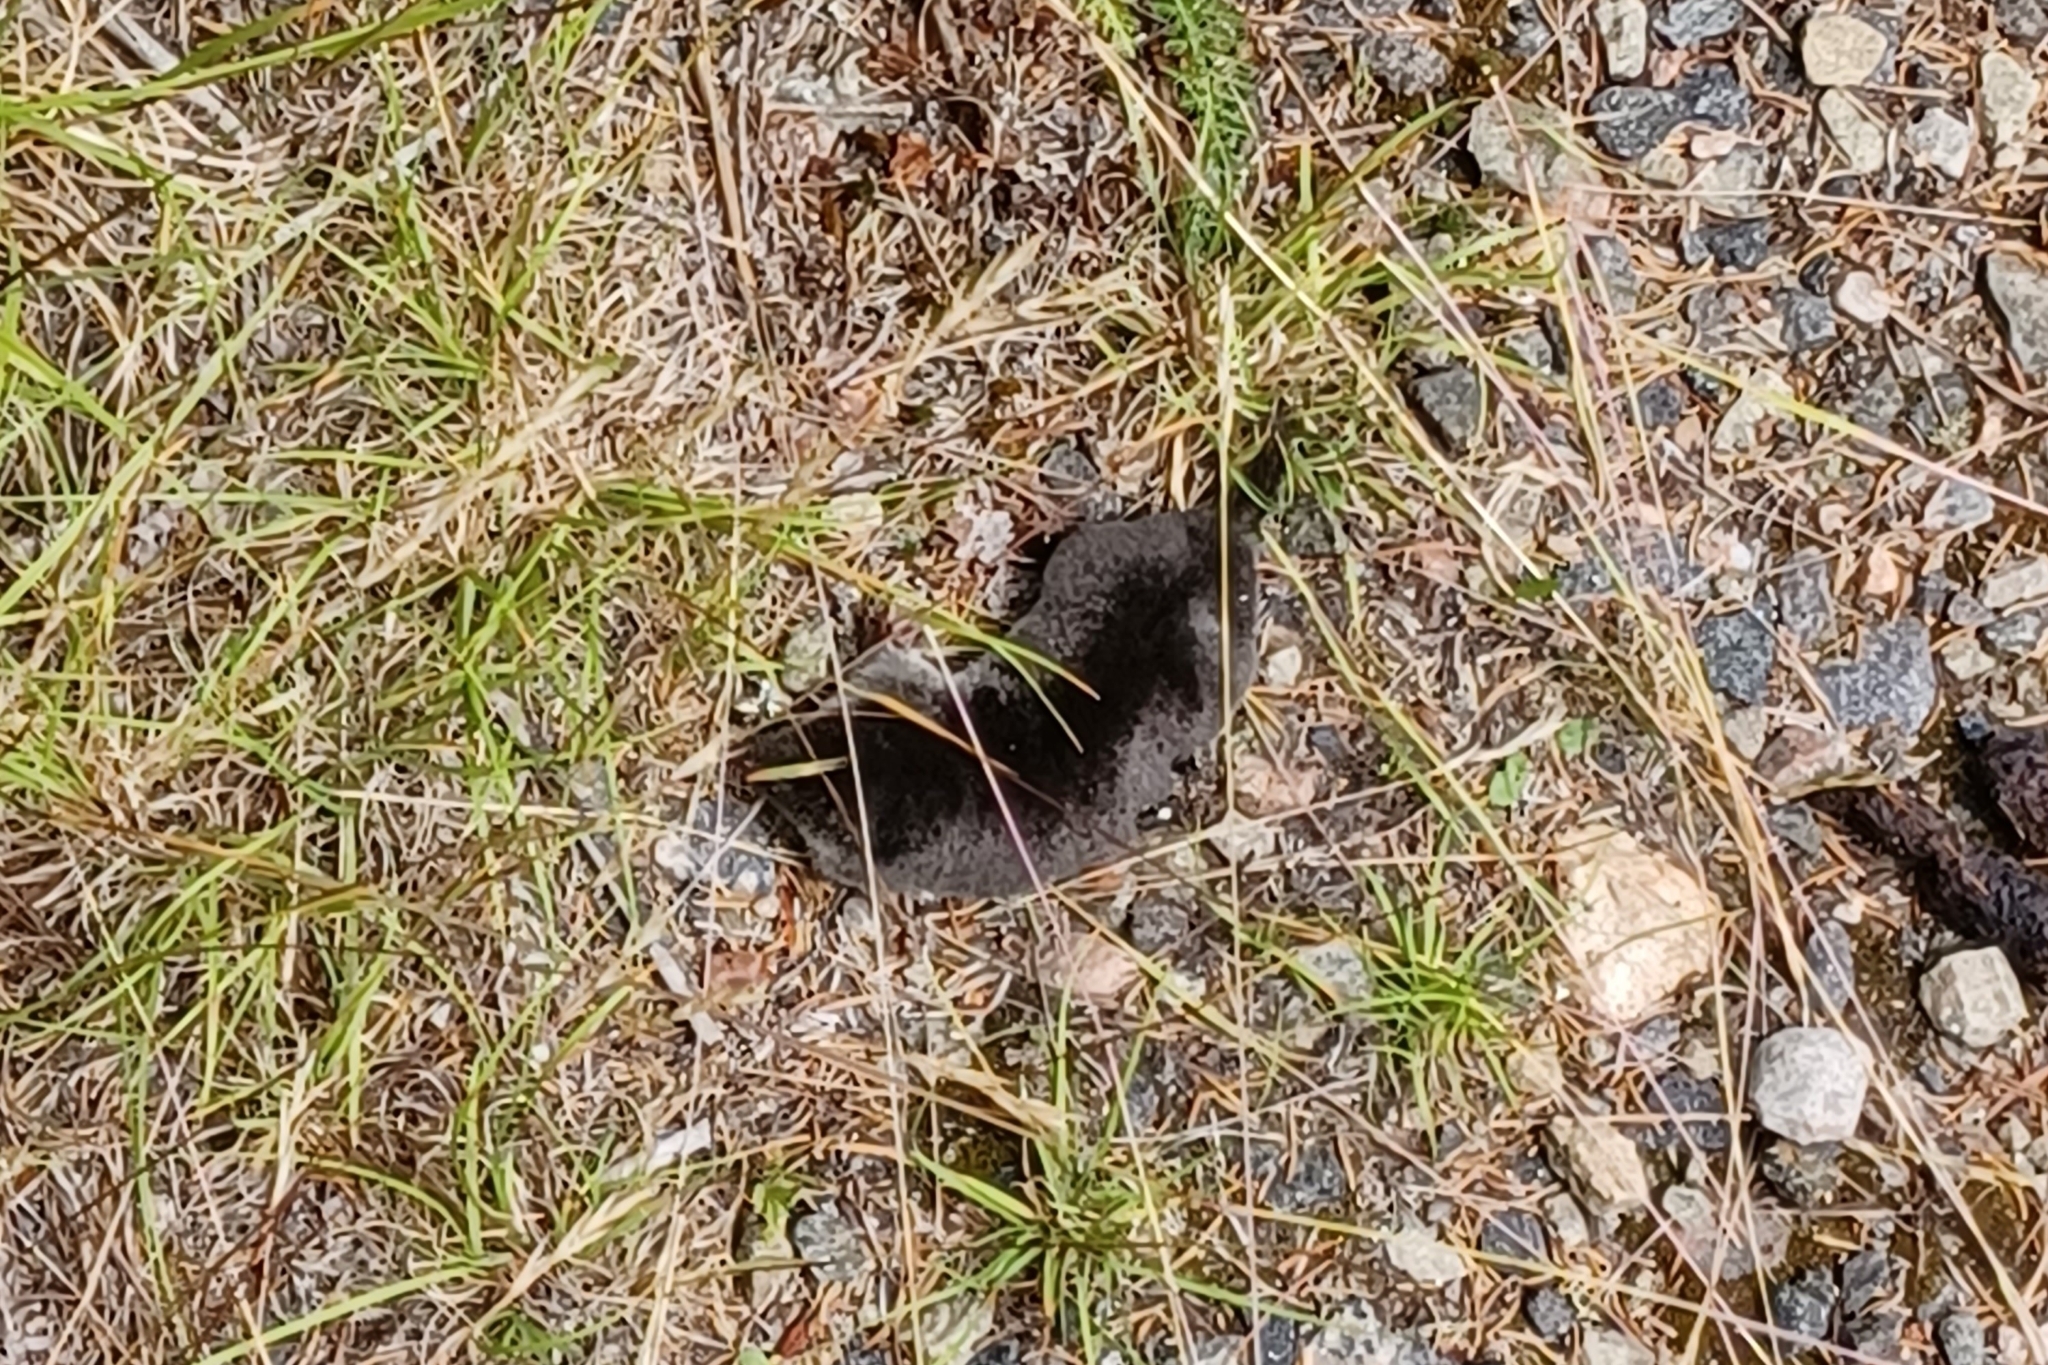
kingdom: Animalia
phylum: Chordata
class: Mammalia
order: Soricomorpha
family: Talpidae
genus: Parascalops
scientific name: Parascalops breweri
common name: Hairy-tailed mole
